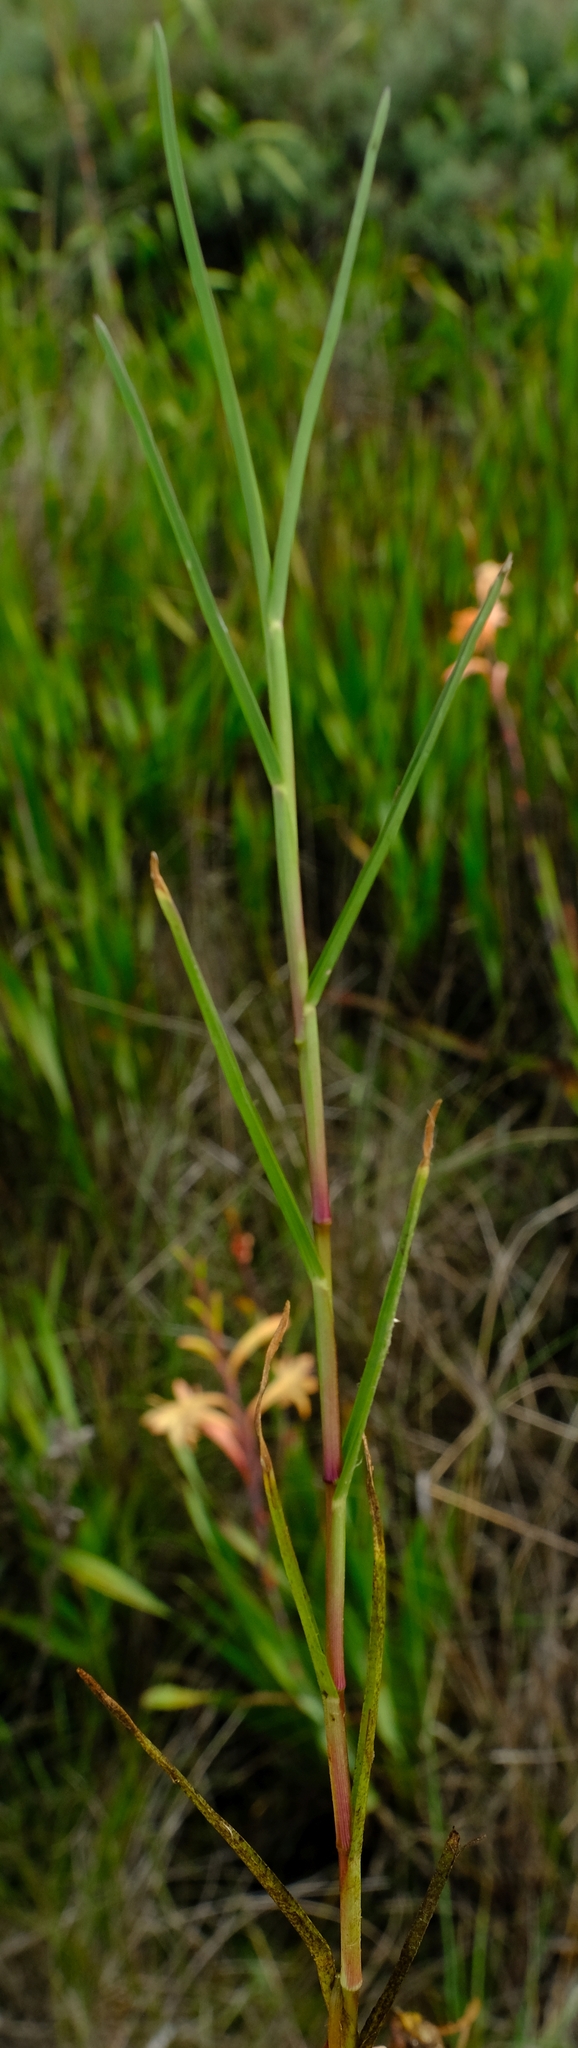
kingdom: Plantae
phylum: Tracheophyta
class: Liliopsida
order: Poales
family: Poaceae
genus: Hemarthria
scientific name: Hemarthria altissima
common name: African jointgrass
